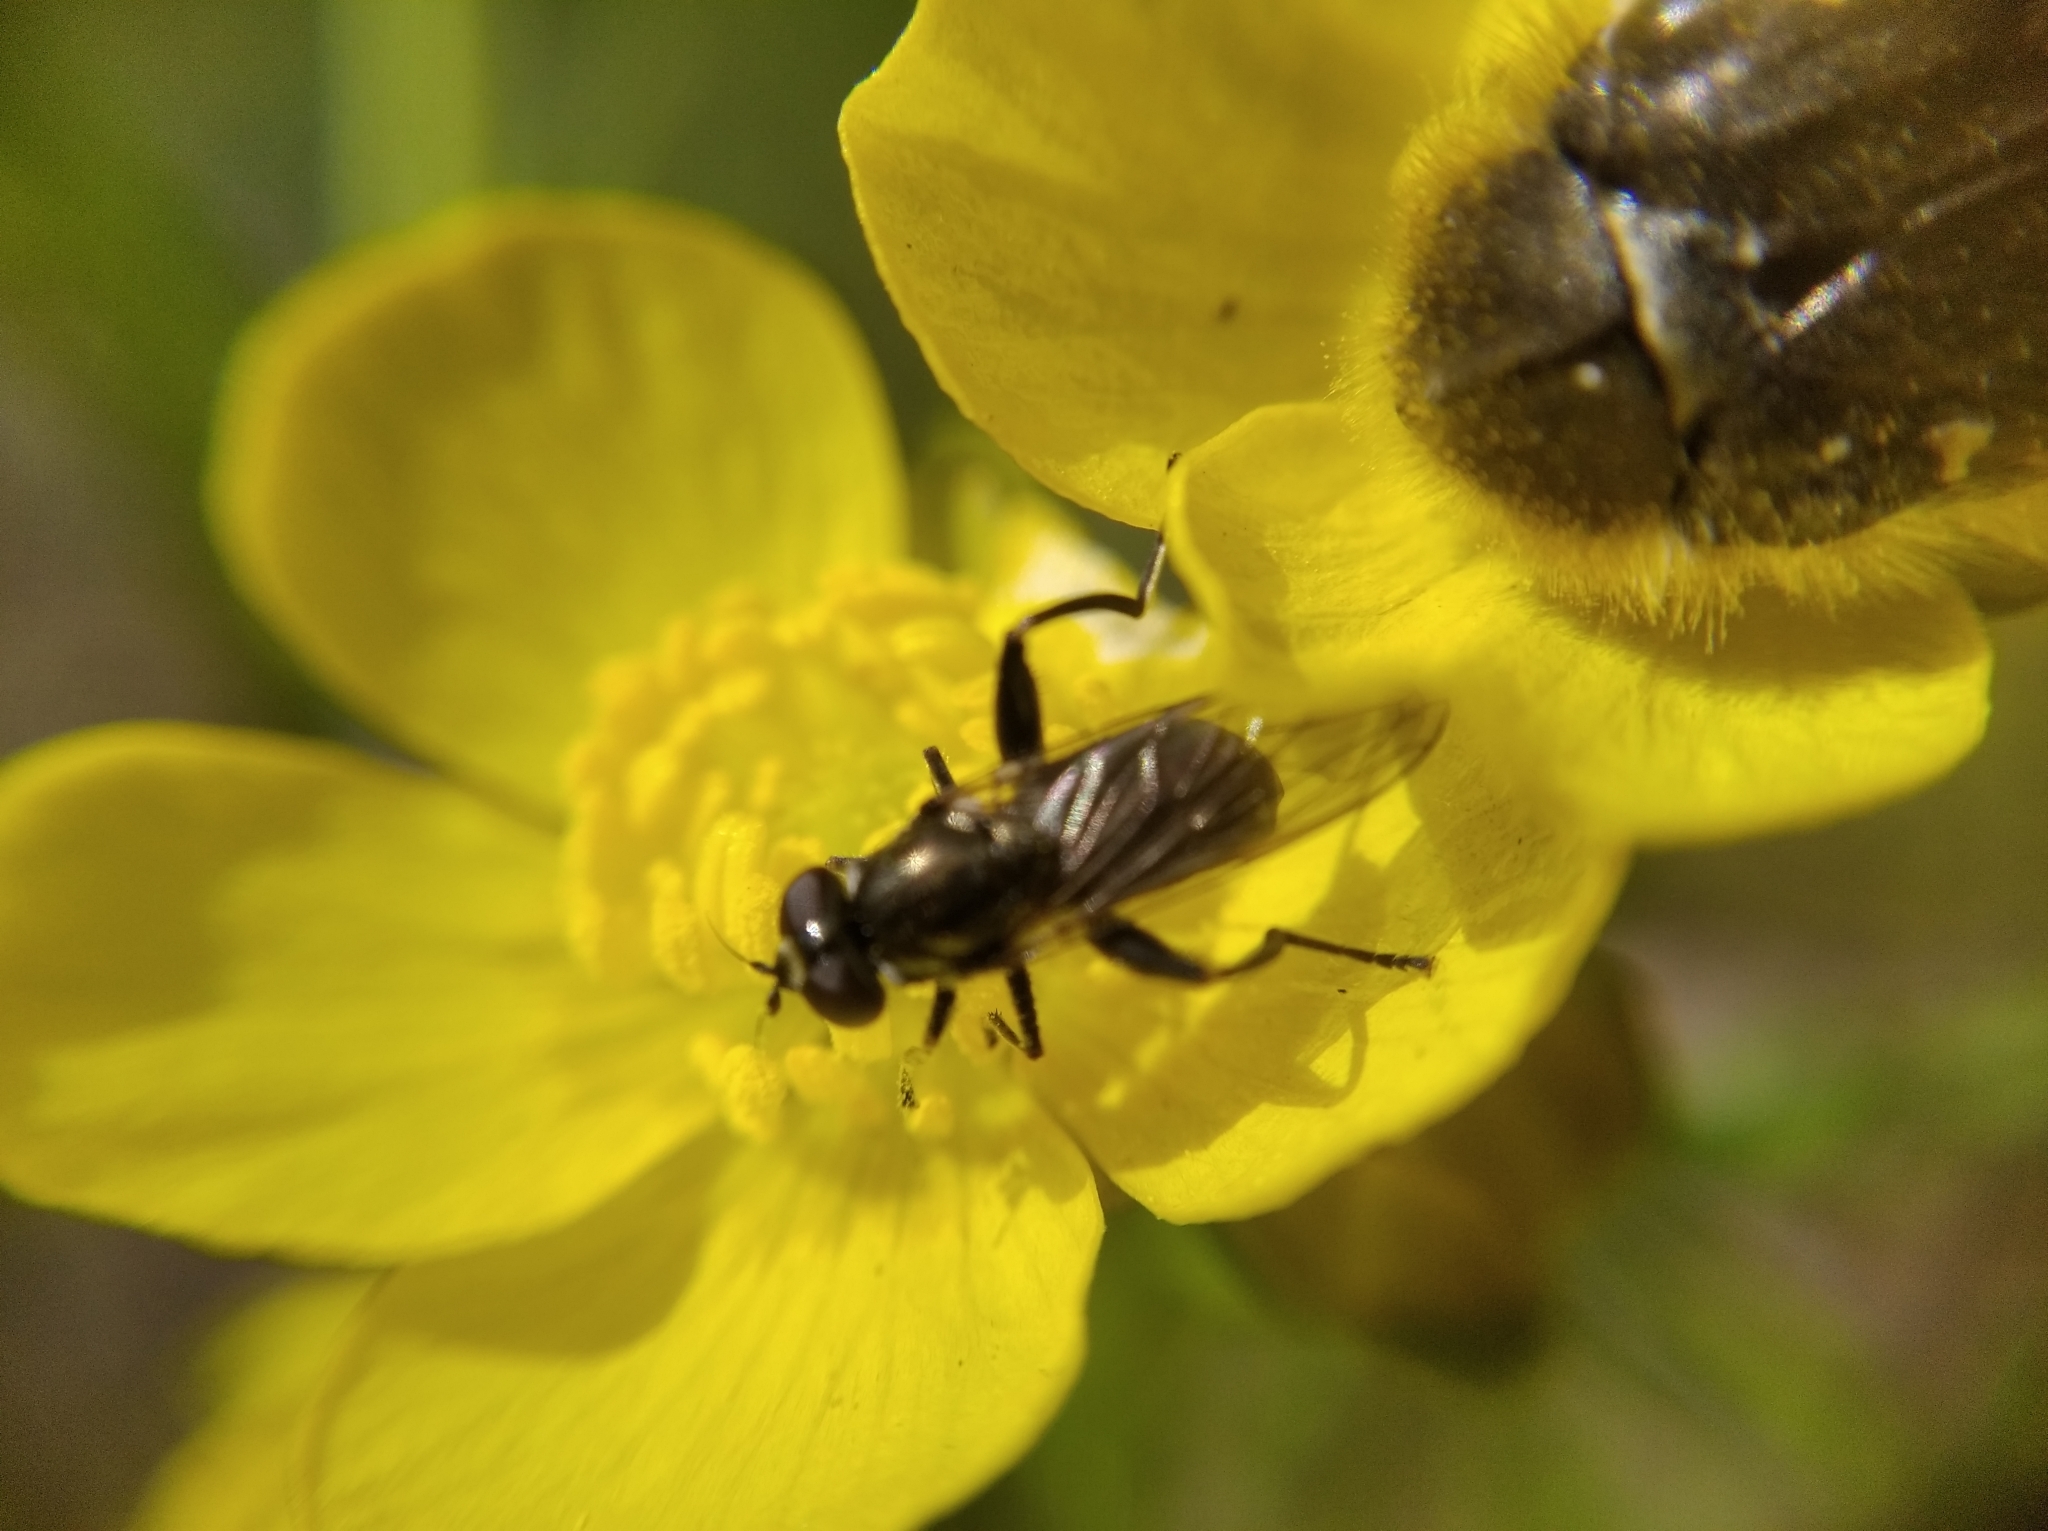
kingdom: Animalia
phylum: Arthropoda
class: Insecta
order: Diptera
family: Syrphidae
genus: Chalcosyrphus
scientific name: Chalcosyrphus nemorum
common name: Dusky-banded forest fly
